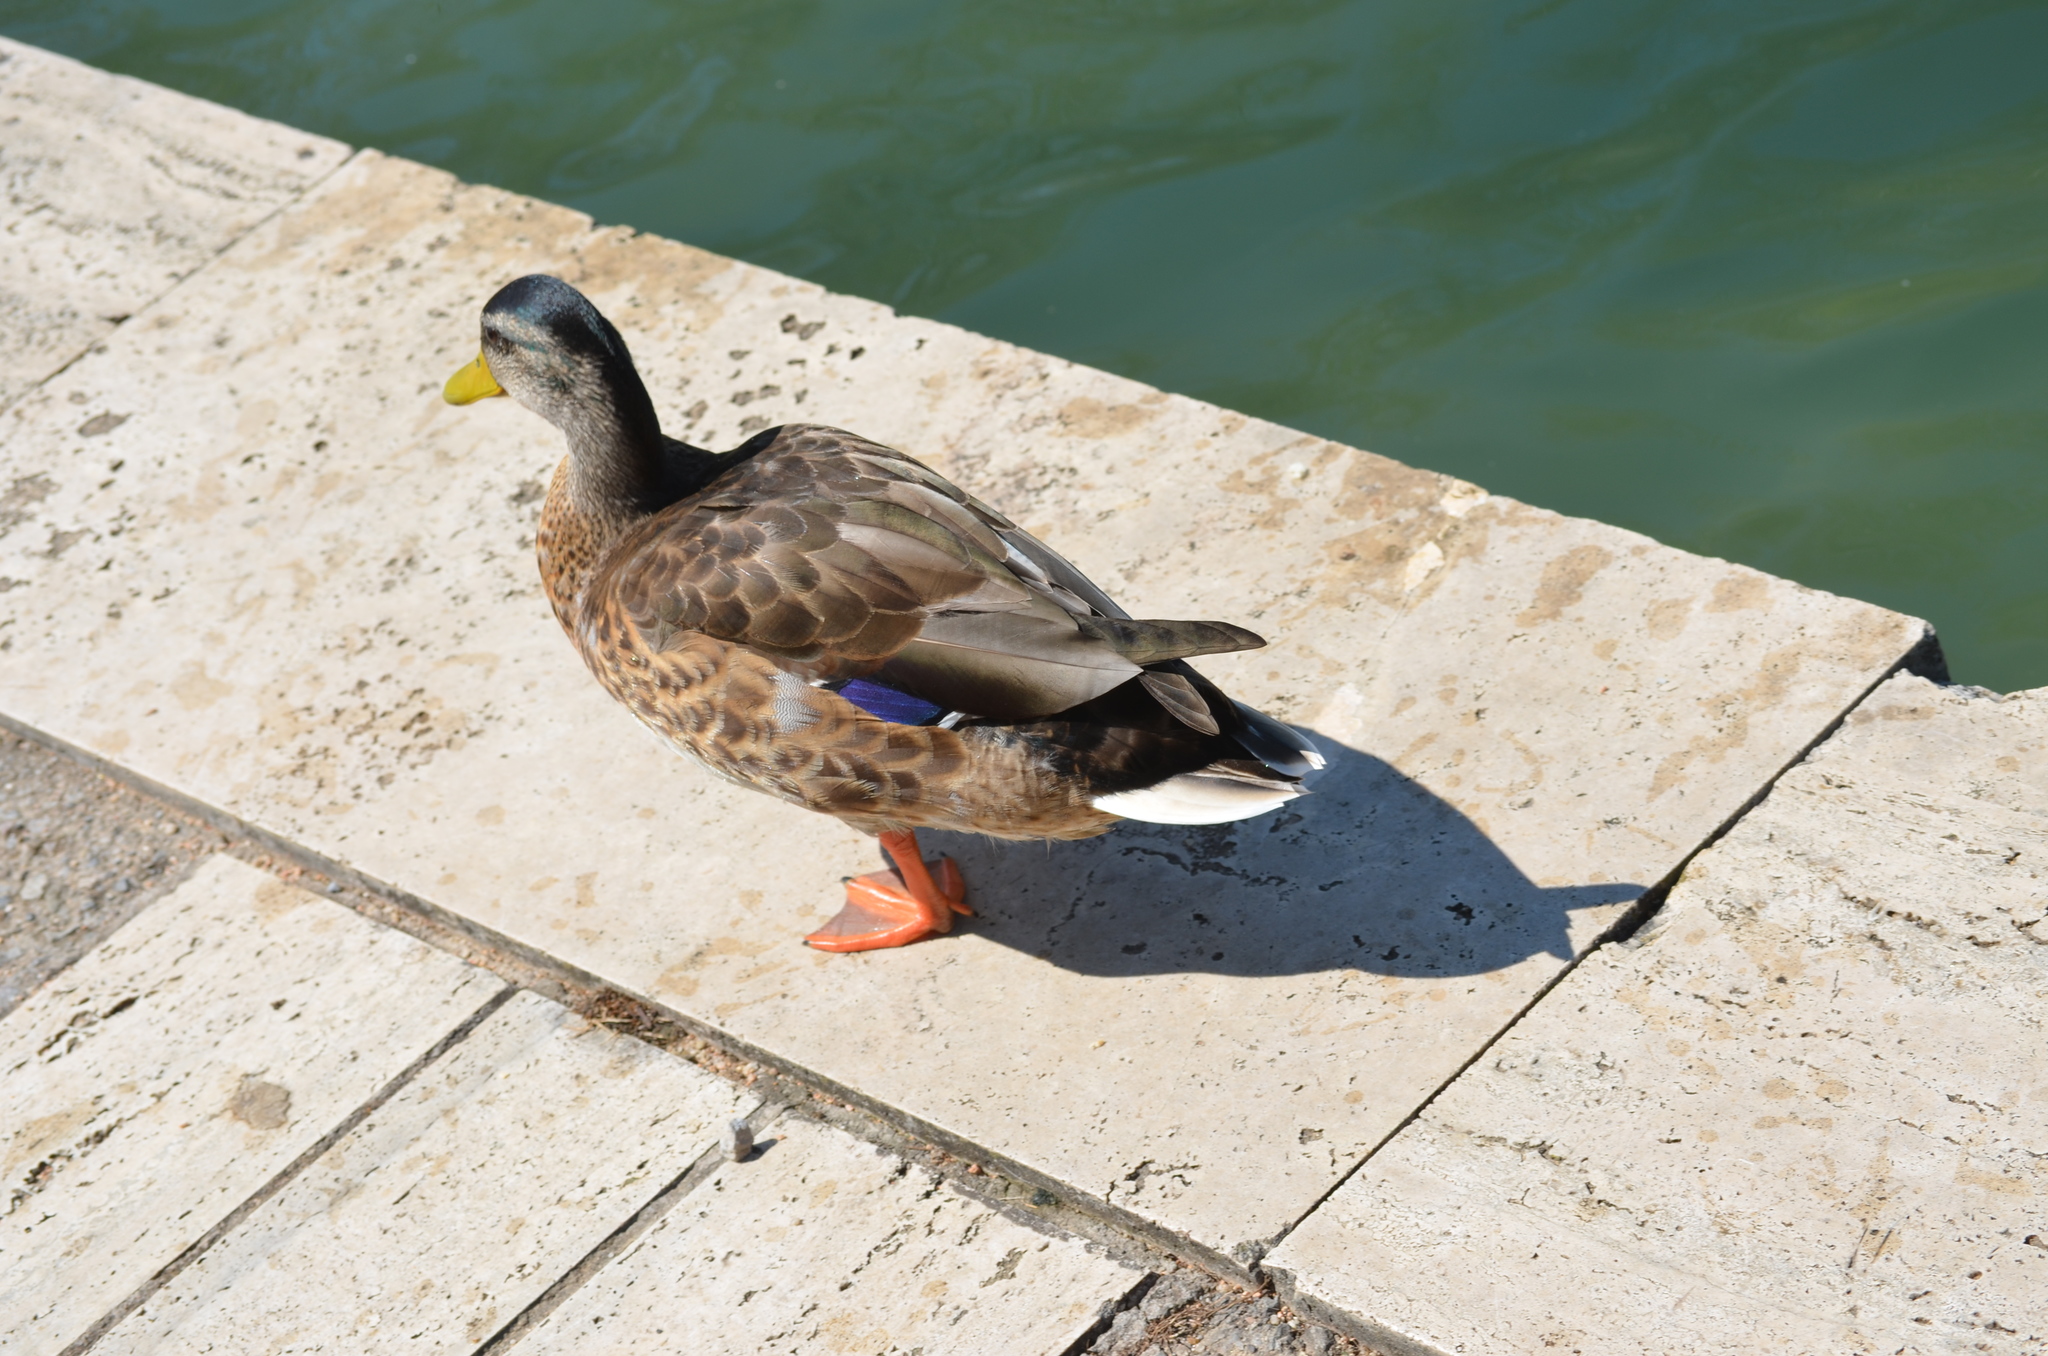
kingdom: Animalia
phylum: Chordata
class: Aves
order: Anseriformes
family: Anatidae
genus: Anas
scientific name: Anas platyrhynchos
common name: Mallard
